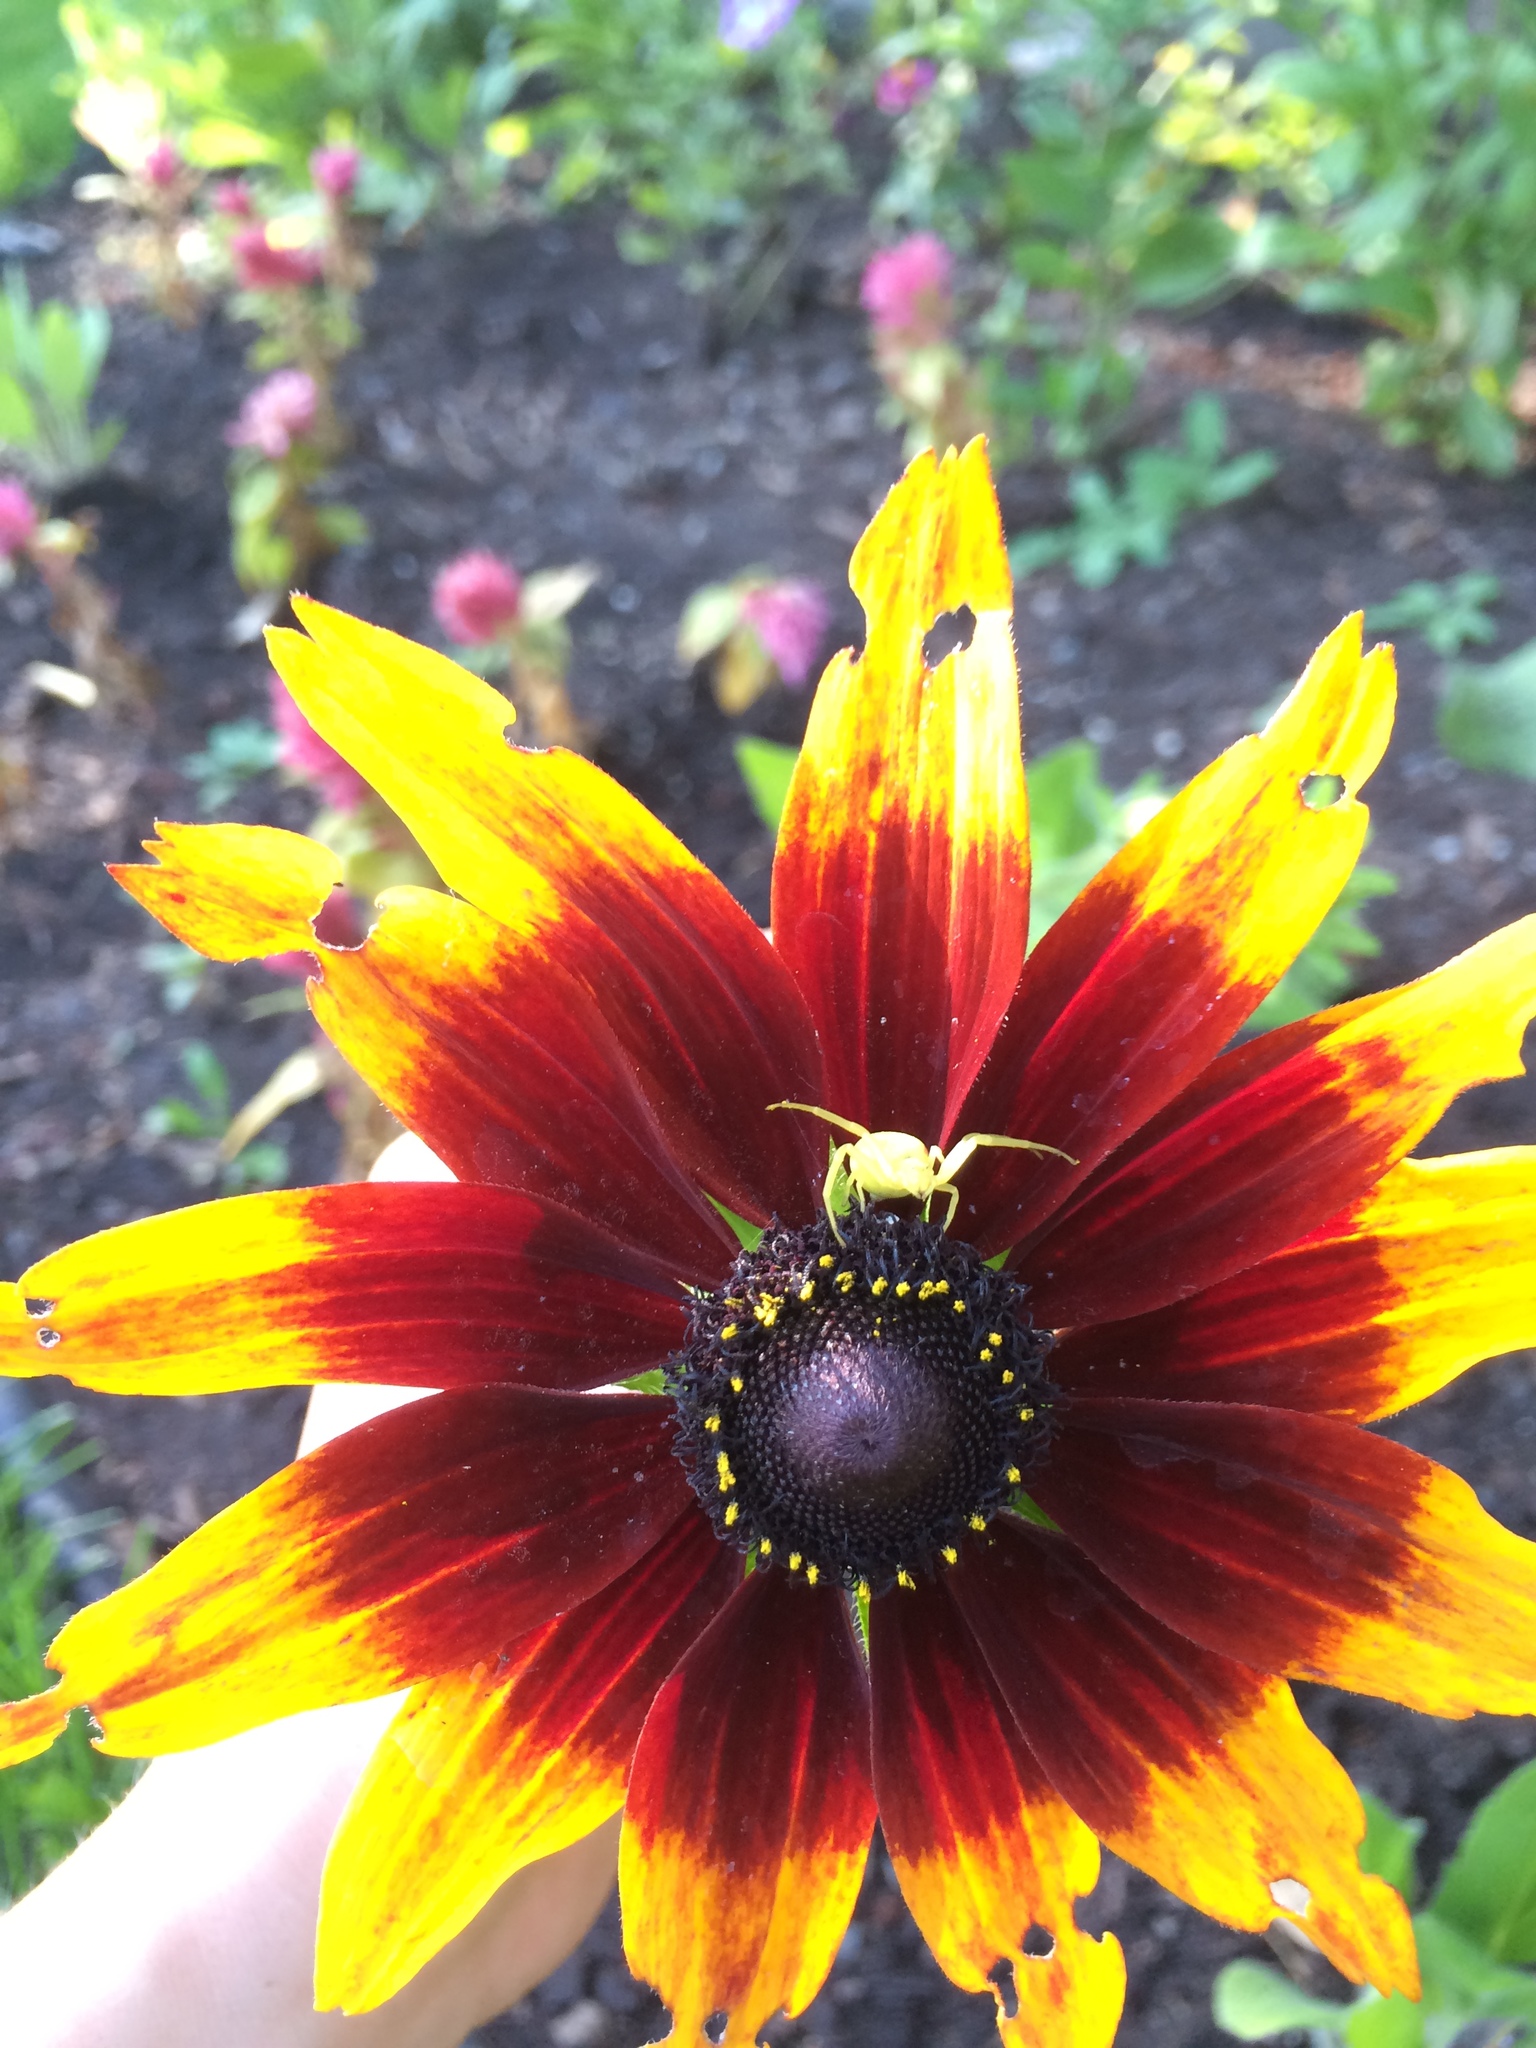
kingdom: Animalia
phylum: Arthropoda
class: Arachnida
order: Araneae
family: Thomisidae
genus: Misumena
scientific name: Misumena vatia
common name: Goldenrod crab spider
